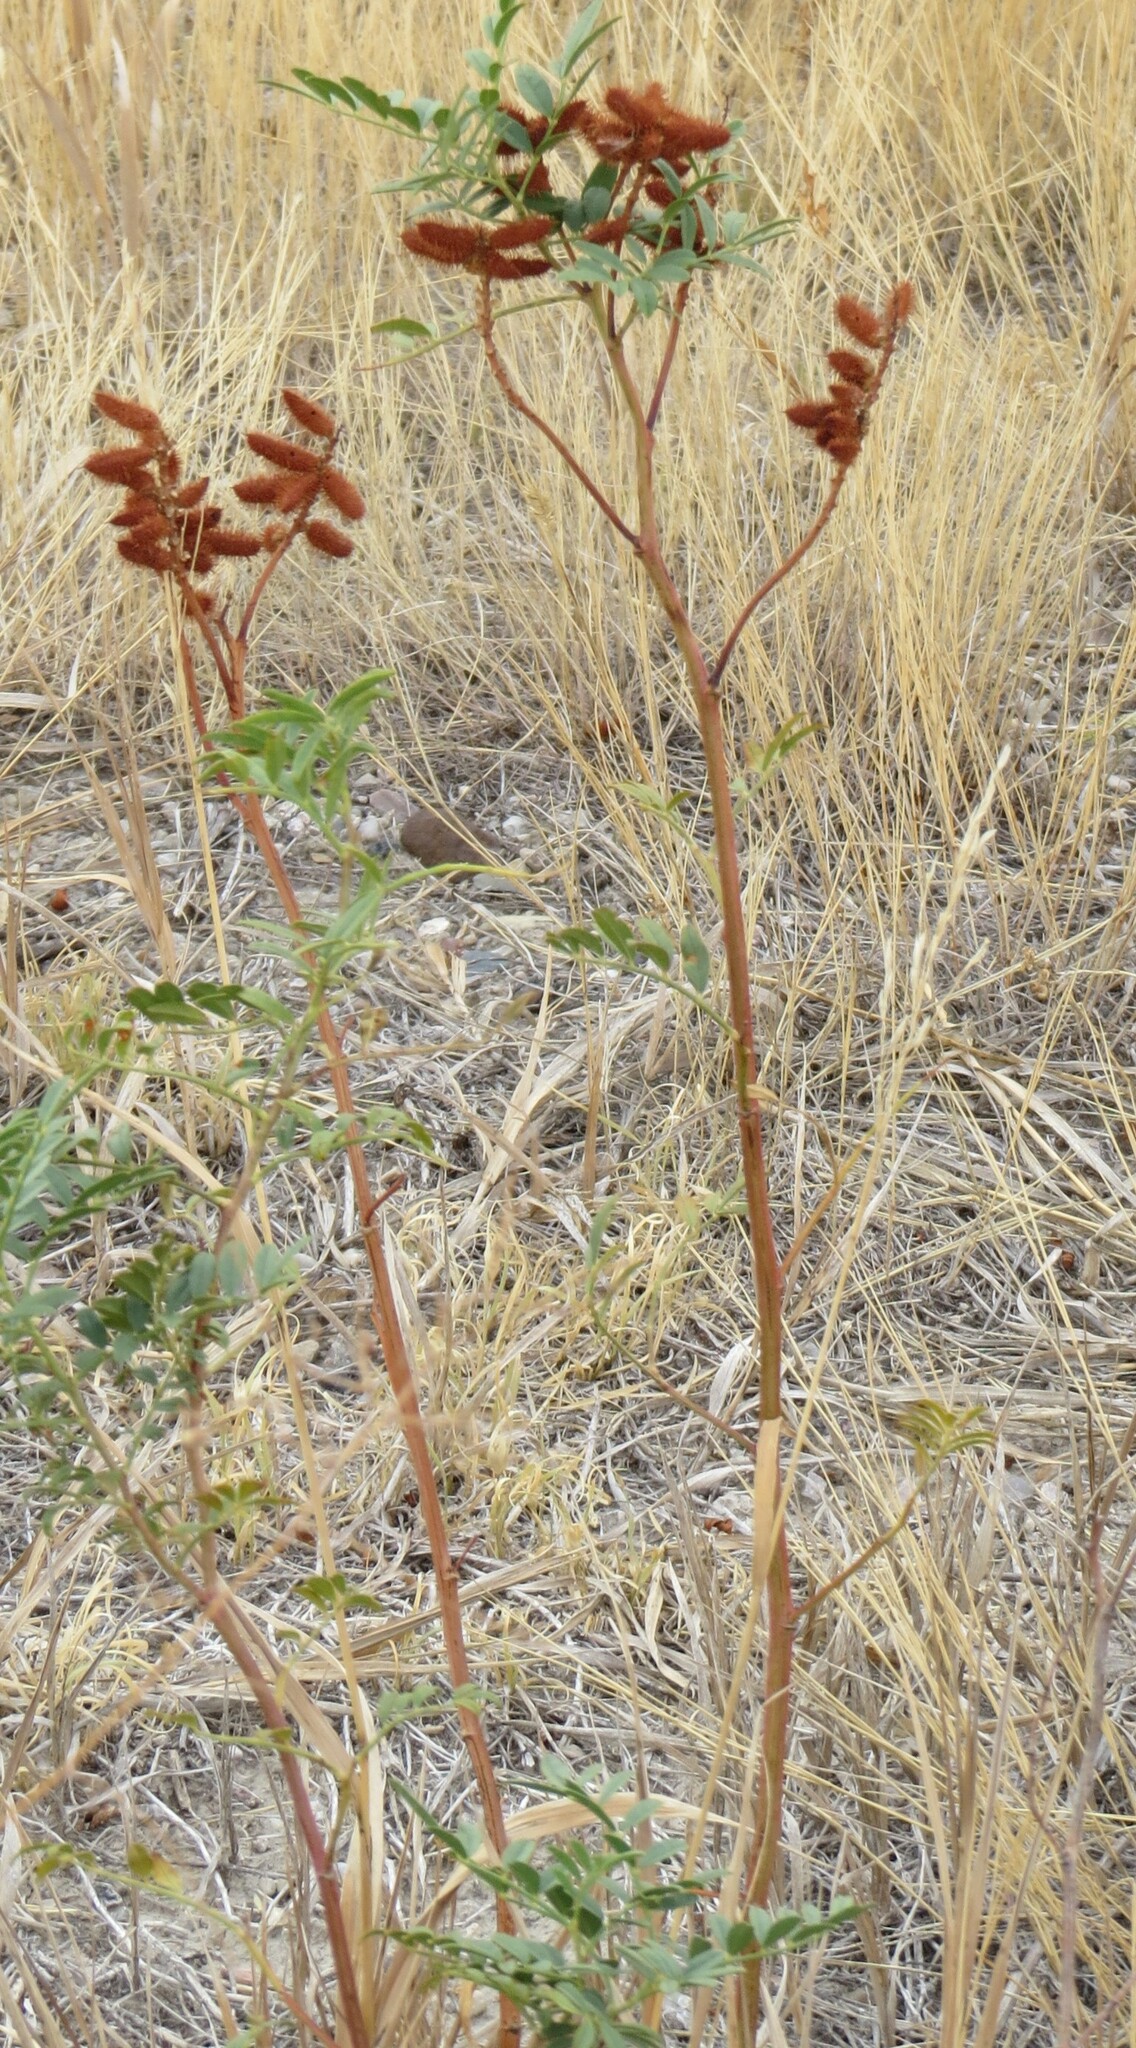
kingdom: Plantae
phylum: Tracheophyta
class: Magnoliopsida
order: Fabales
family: Fabaceae
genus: Glycyrrhiza
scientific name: Glycyrrhiza lepidota
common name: American liquorice
